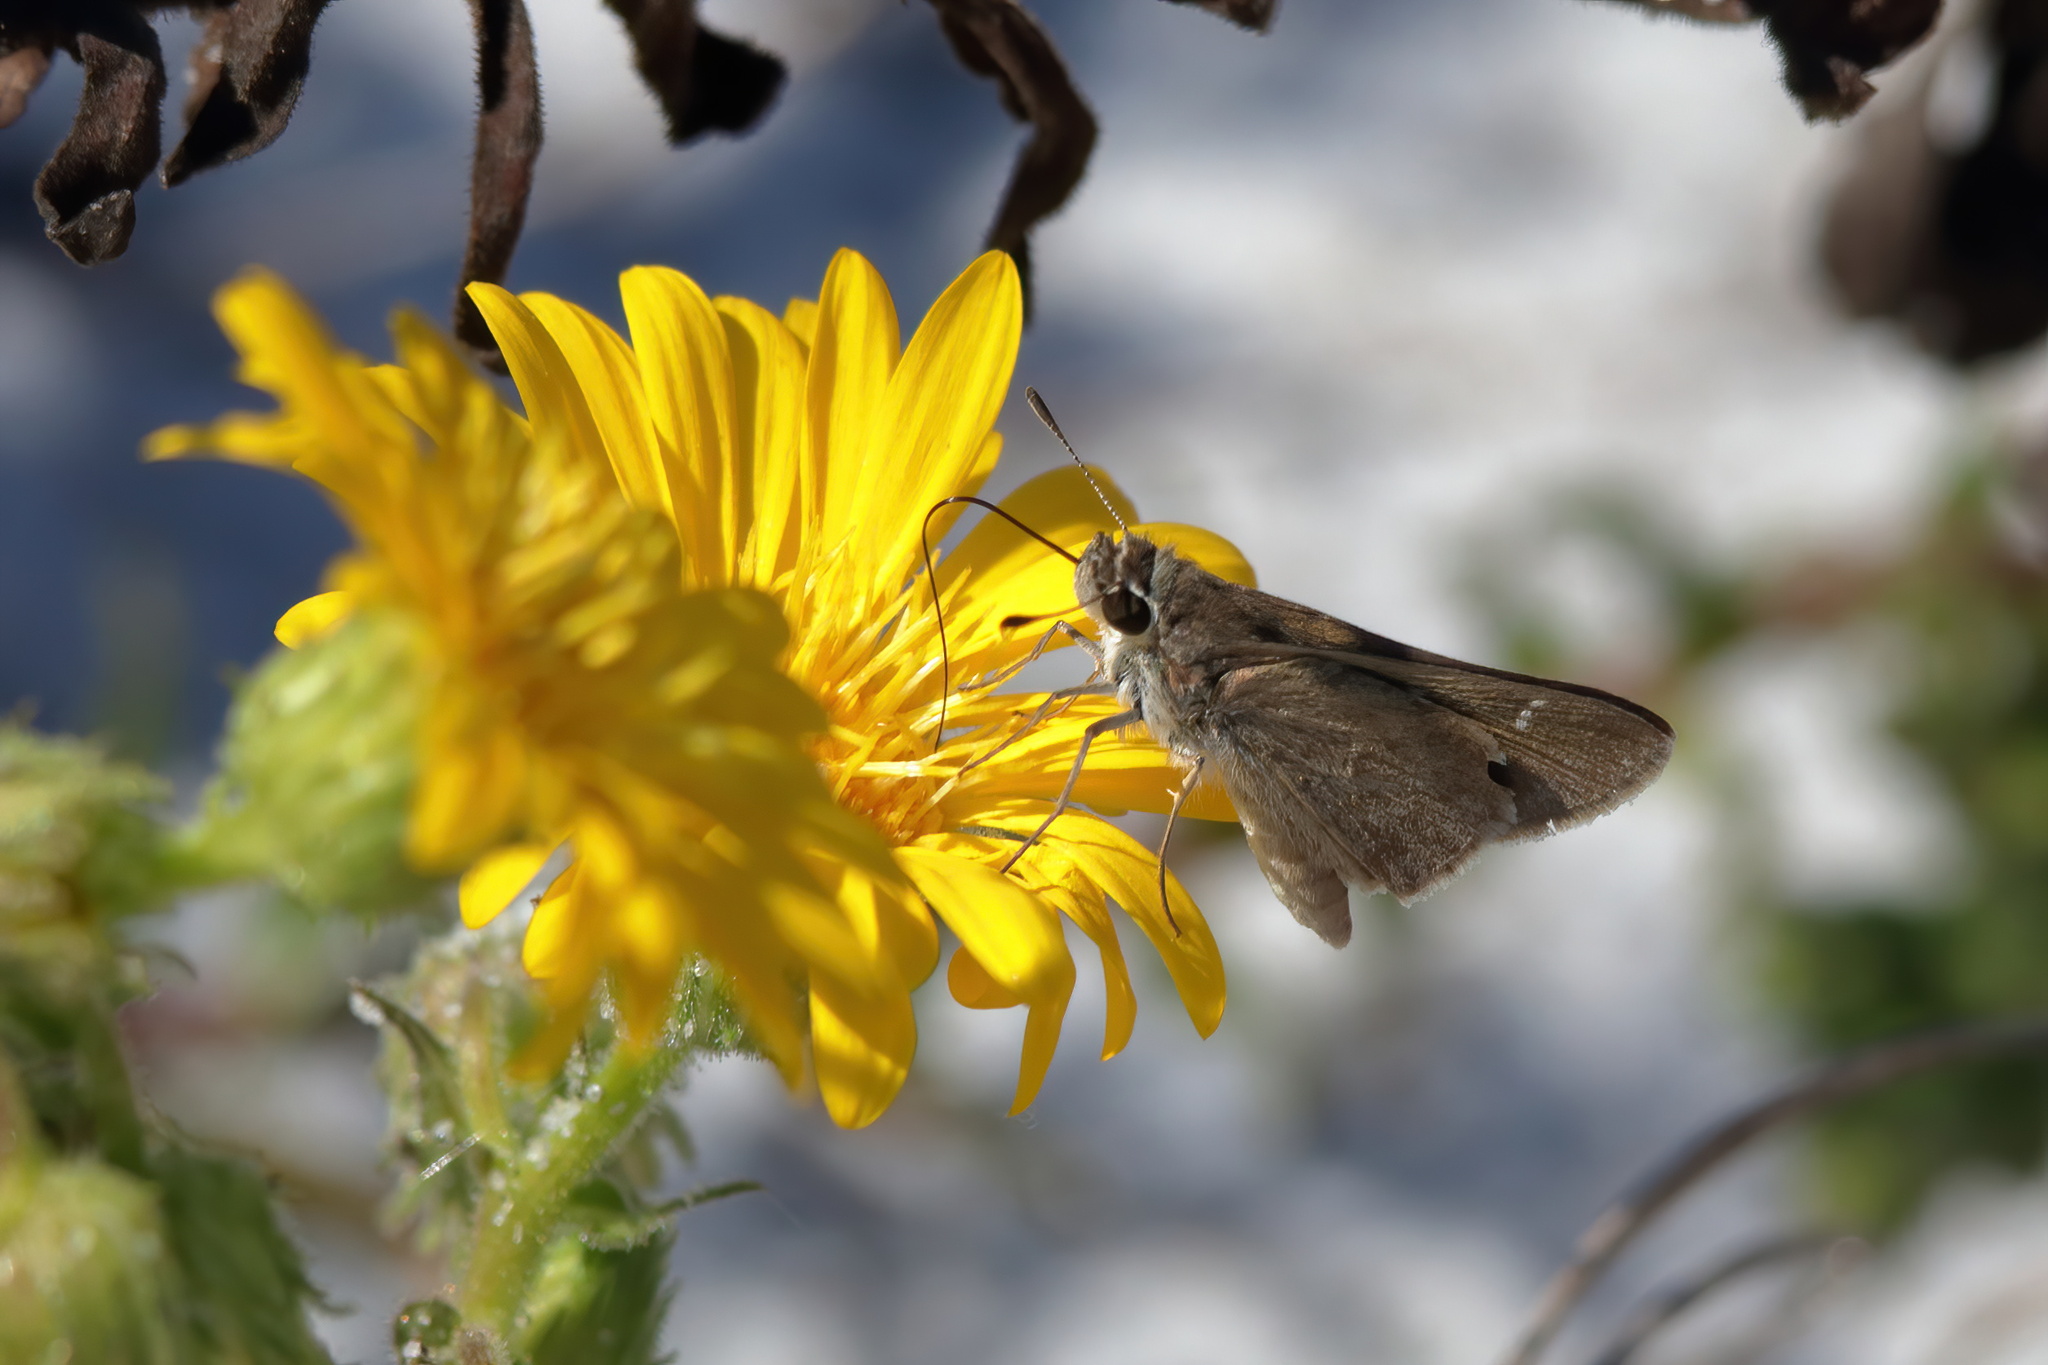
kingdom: Animalia
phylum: Arthropoda
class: Insecta
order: Lepidoptera
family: Hesperiidae
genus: Lerodea
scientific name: Lerodea eufala
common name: Eufala skipper
